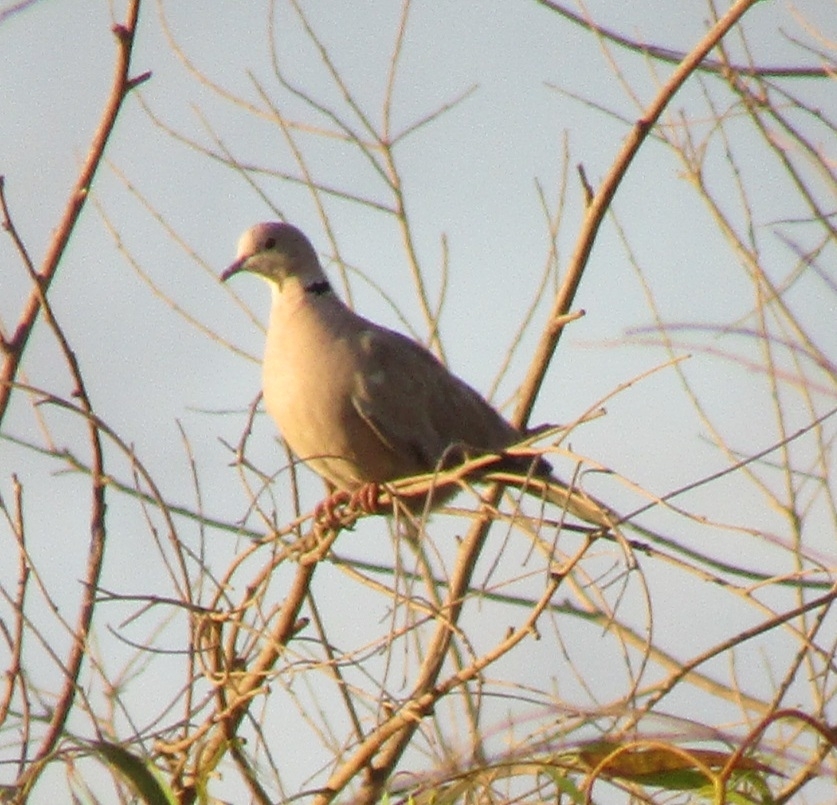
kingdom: Animalia
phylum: Chordata
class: Aves
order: Columbiformes
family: Columbidae
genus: Streptopelia
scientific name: Streptopelia decaocto
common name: Eurasian collared dove
